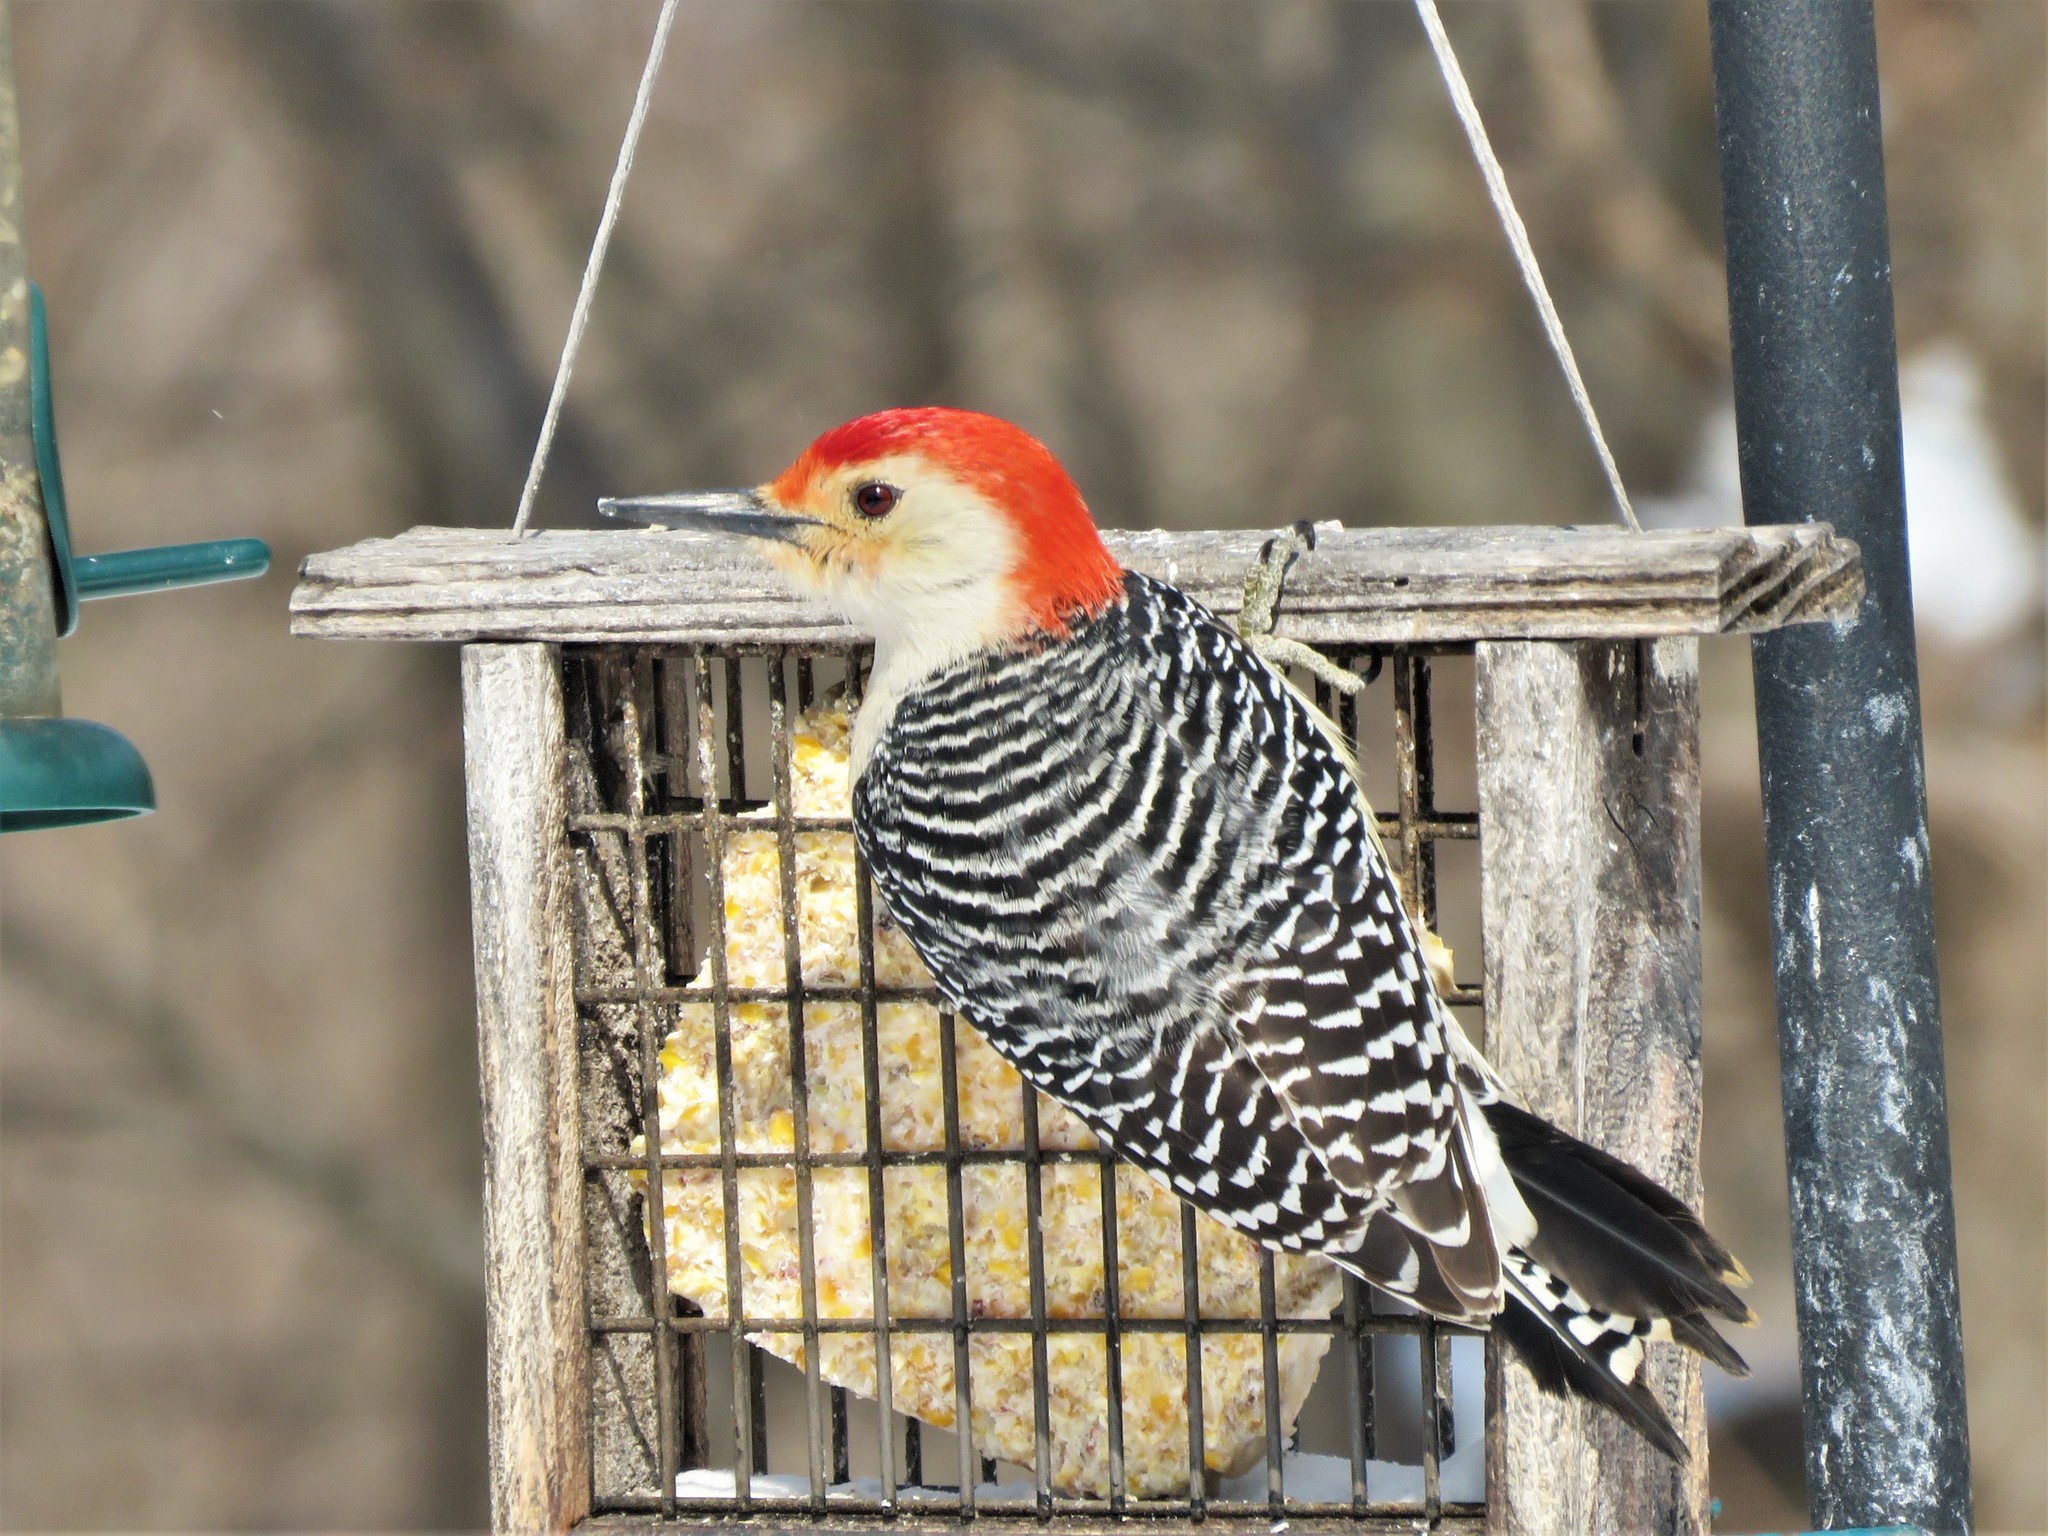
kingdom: Animalia
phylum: Chordata
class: Aves
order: Piciformes
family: Picidae
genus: Melanerpes
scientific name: Melanerpes carolinus
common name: Red-bellied woodpecker
